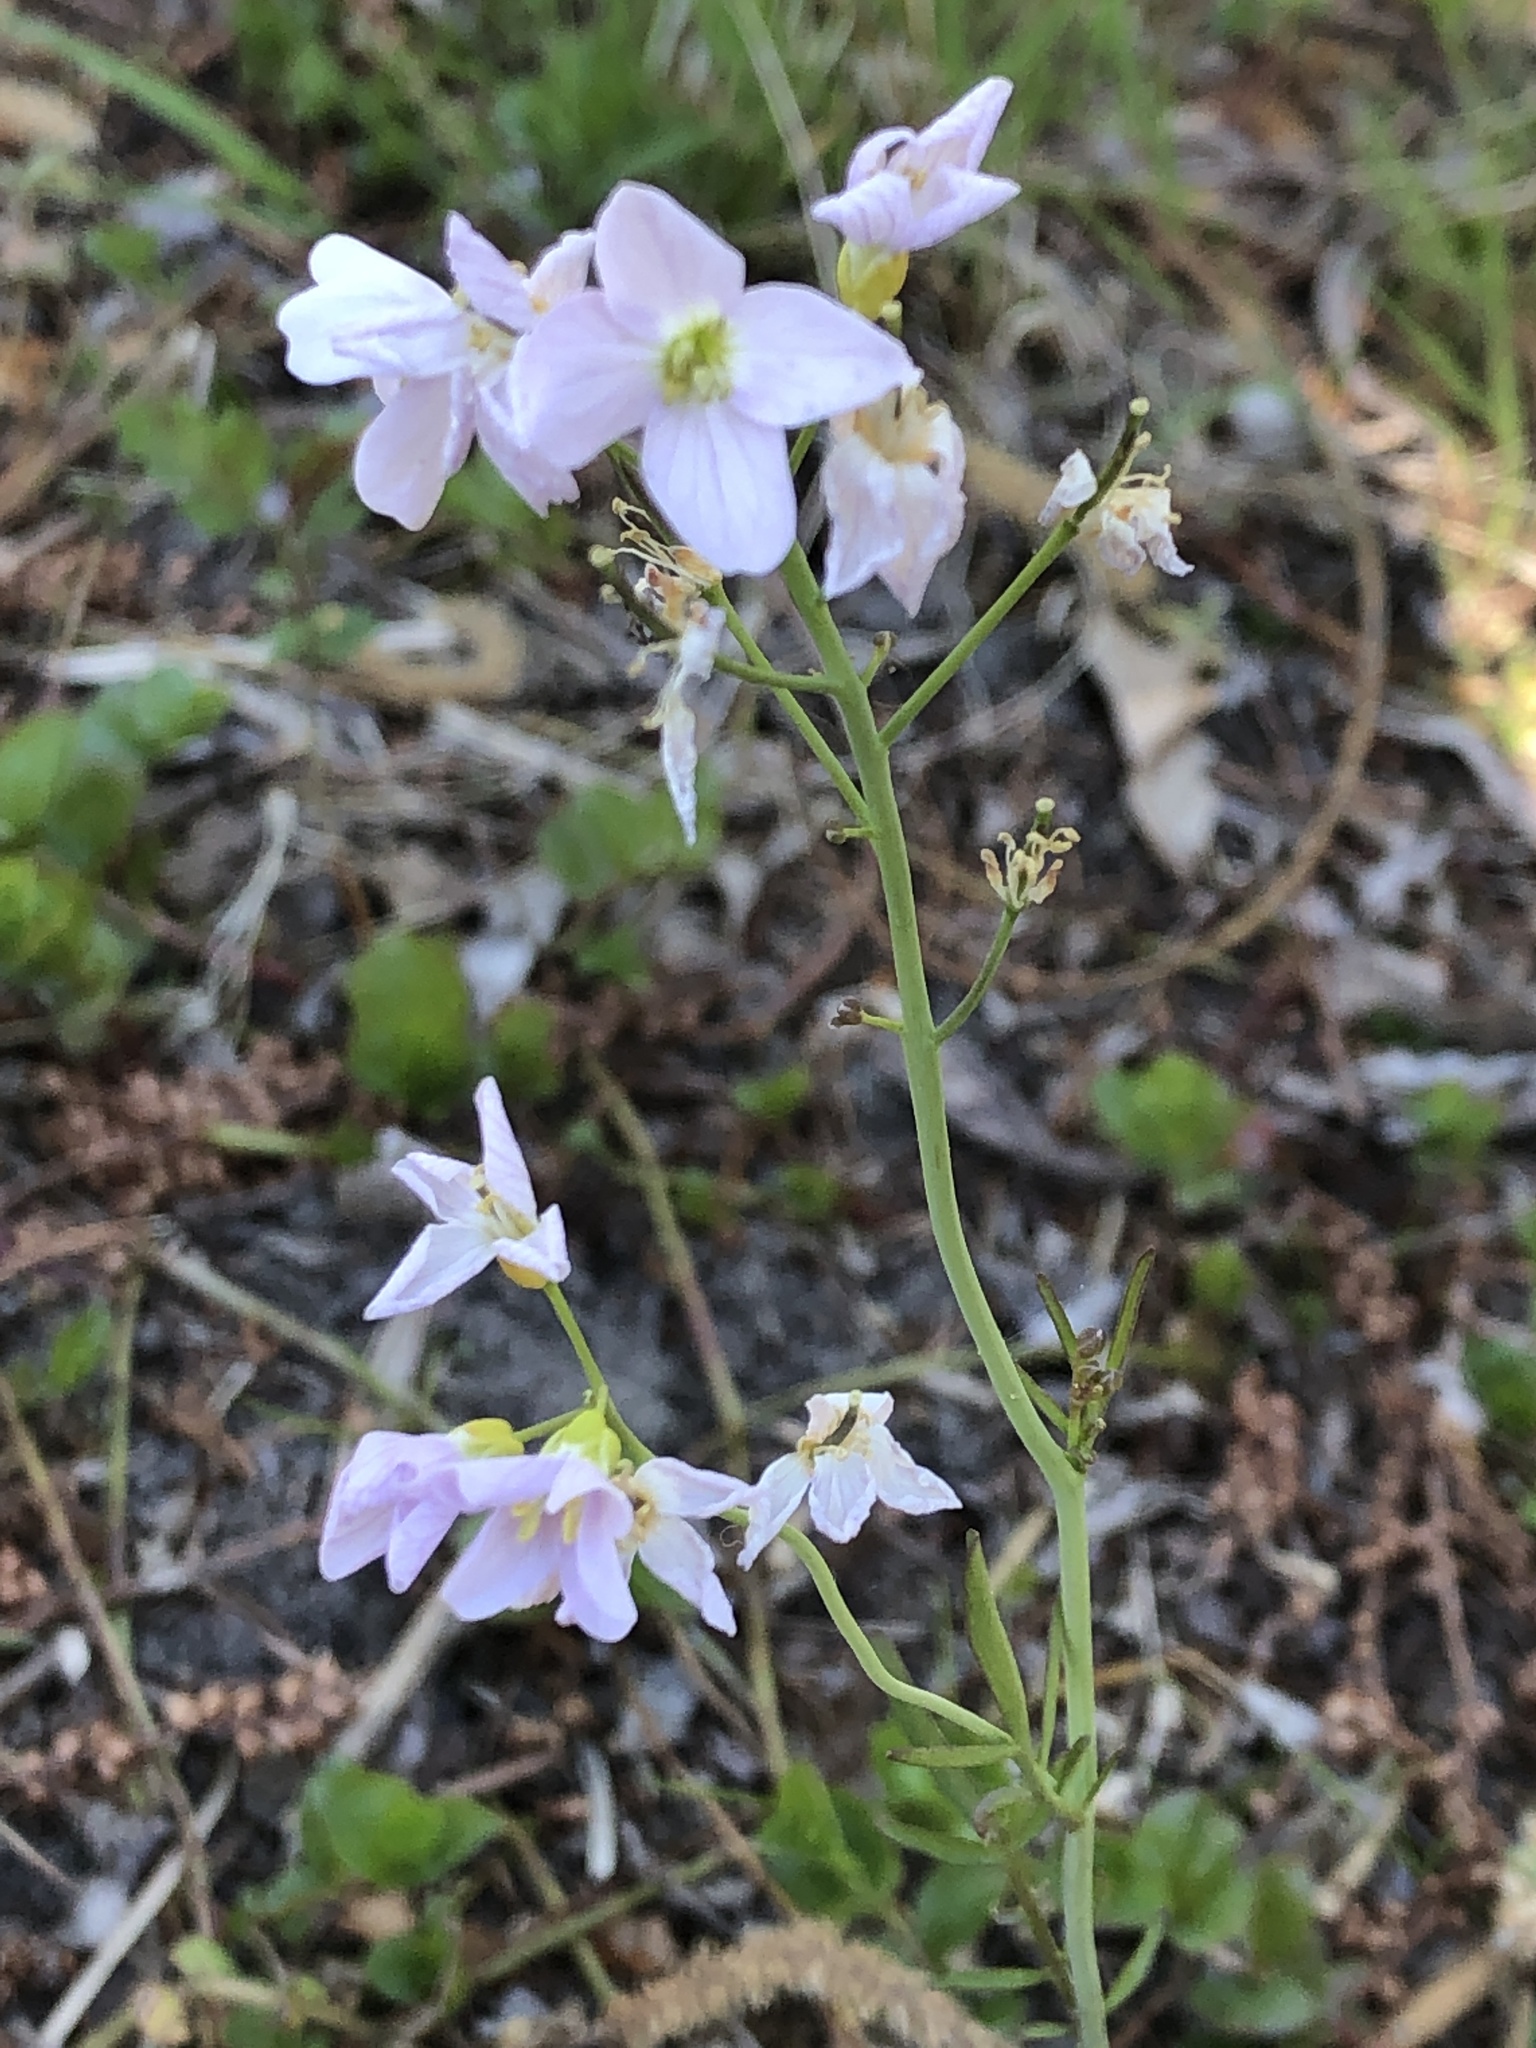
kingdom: Plantae
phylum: Tracheophyta
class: Magnoliopsida
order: Brassicales
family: Brassicaceae
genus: Cardamine
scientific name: Cardamine pratensis
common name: Cuckoo flower
